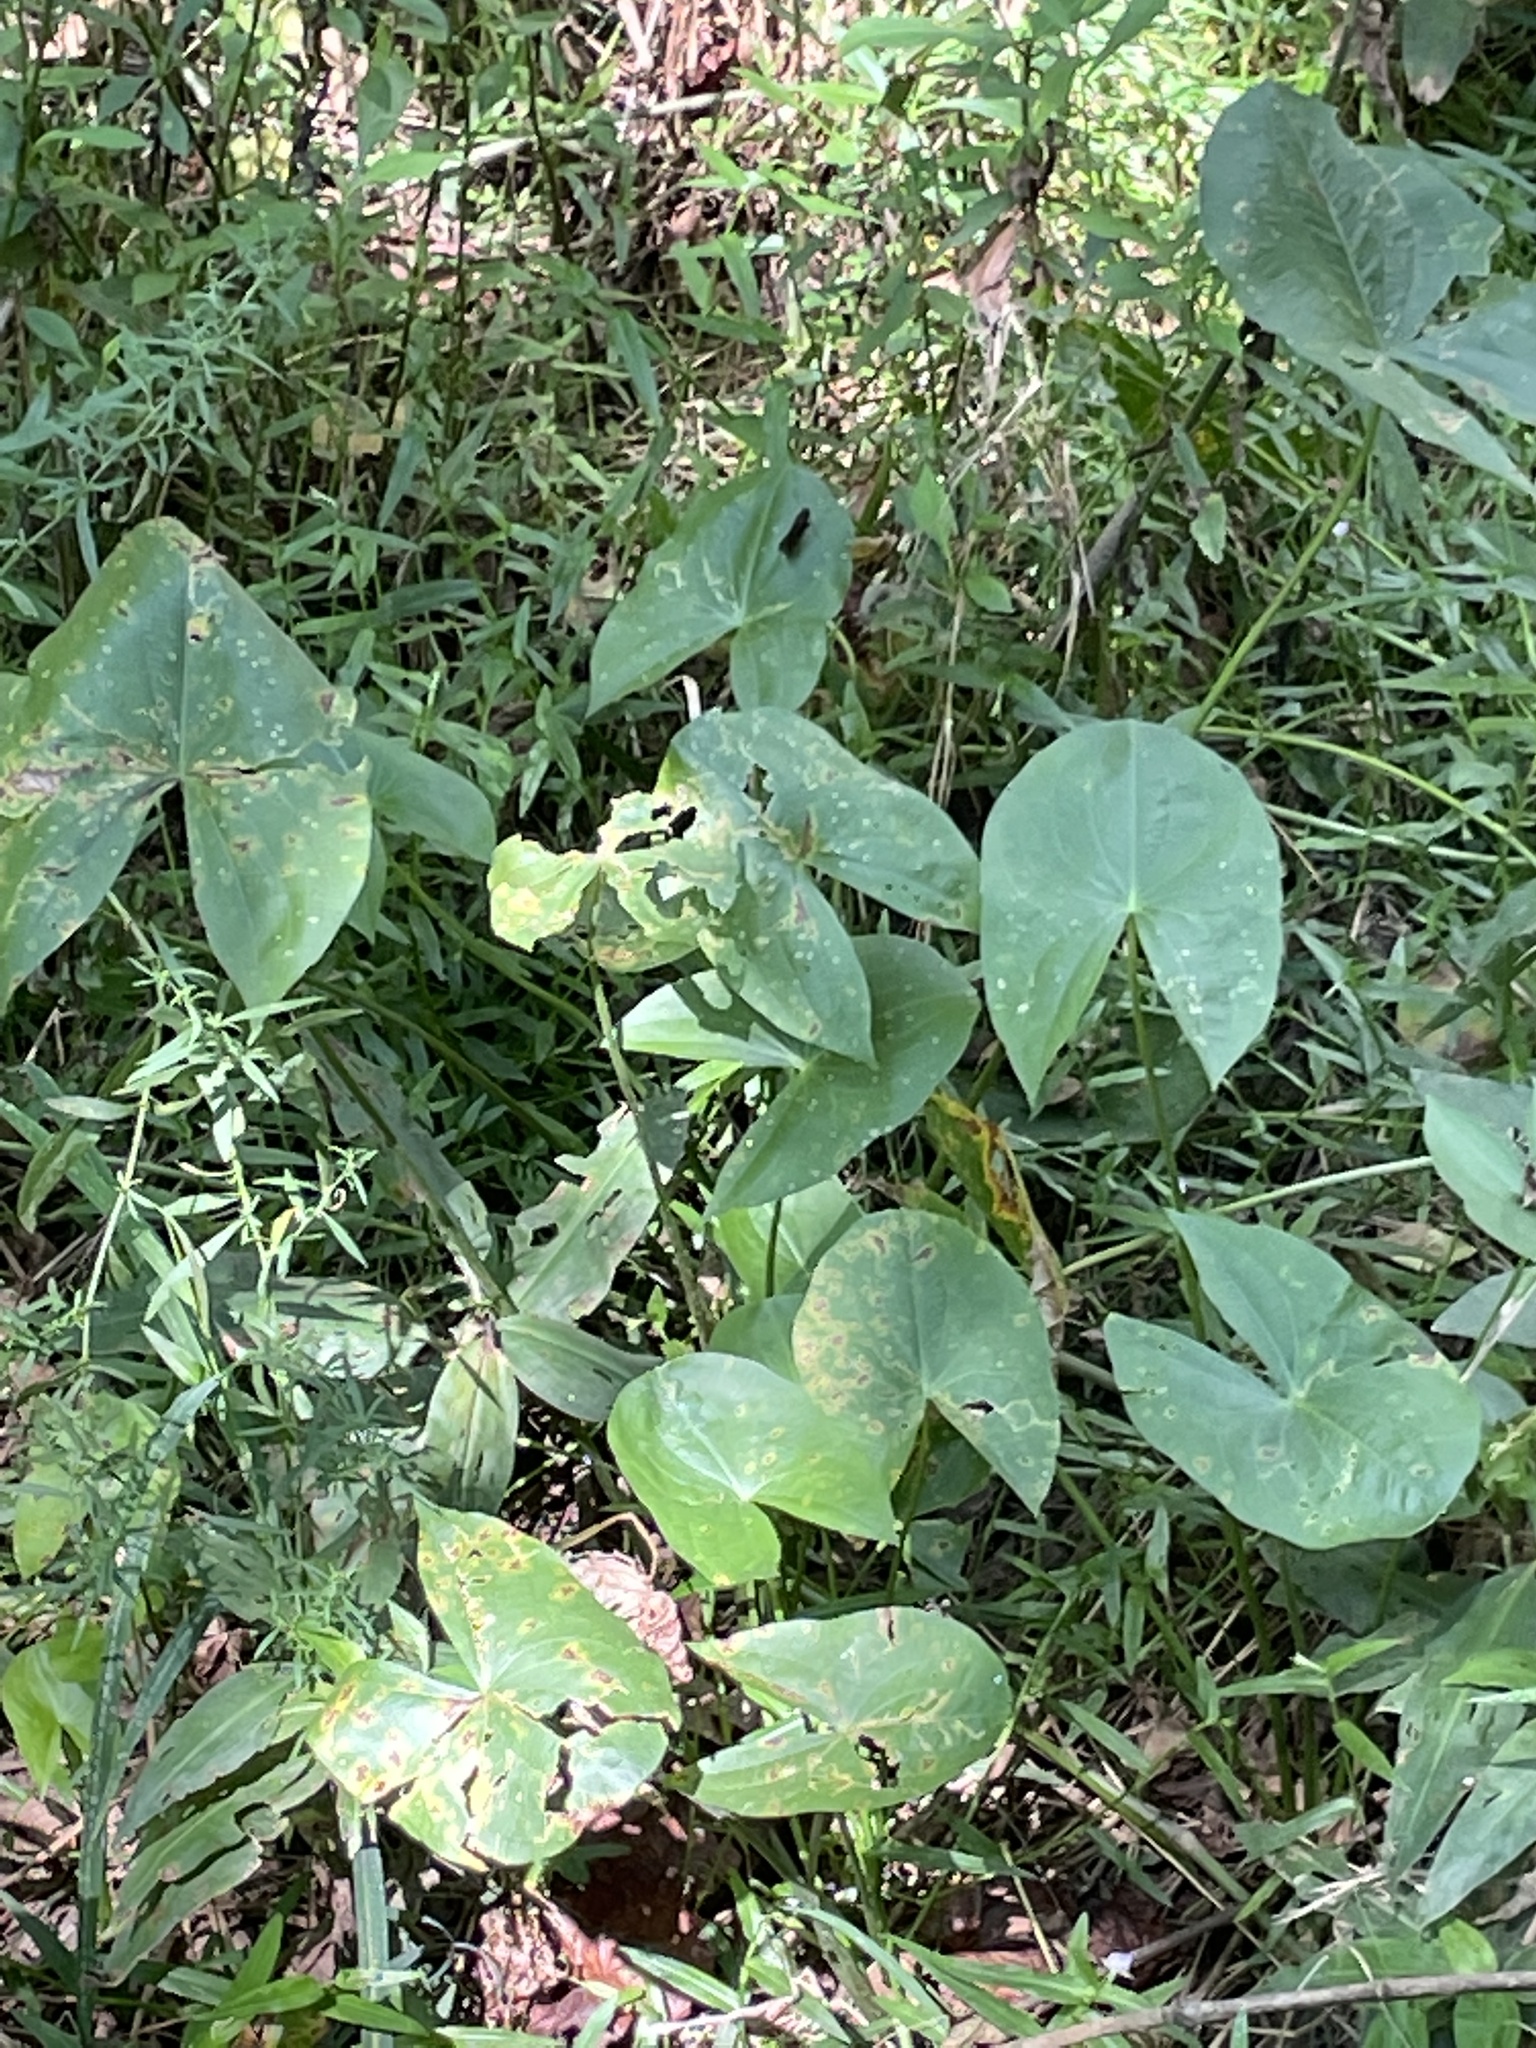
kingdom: Plantae
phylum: Tracheophyta
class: Liliopsida
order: Alismatales
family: Alismataceae
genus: Sagittaria
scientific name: Sagittaria latifolia
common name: Duck-potato
